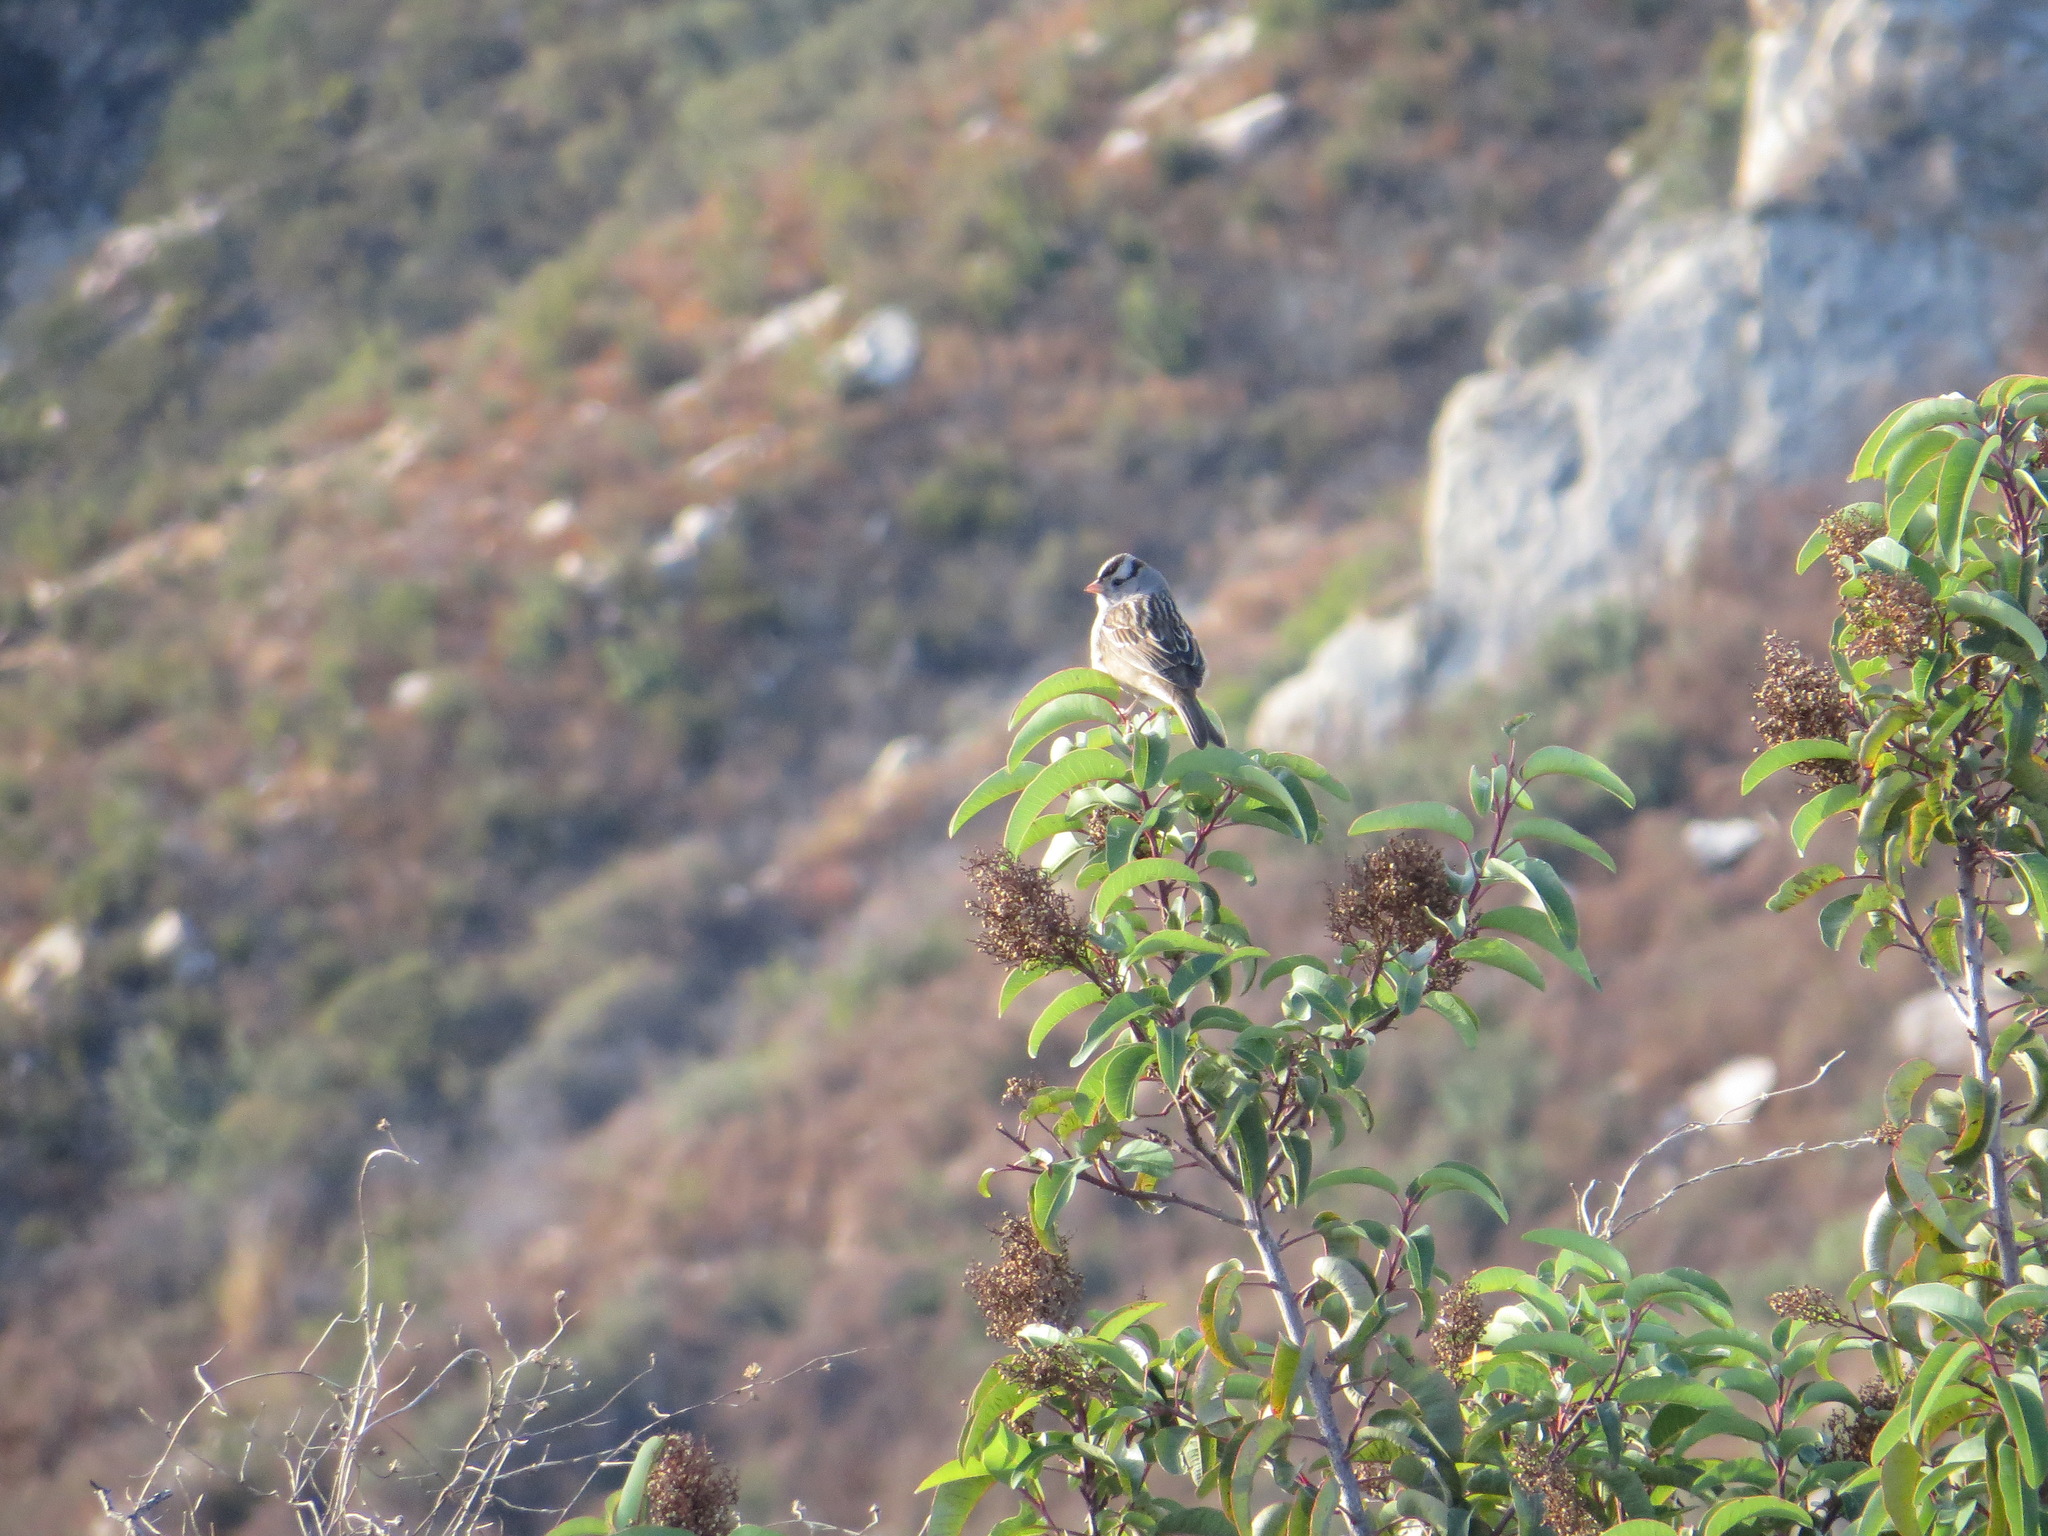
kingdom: Animalia
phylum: Chordata
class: Aves
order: Passeriformes
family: Passerellidae
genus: Zonotrichia
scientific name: Zonotrichia leucophrys
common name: White-crowned sparrow
